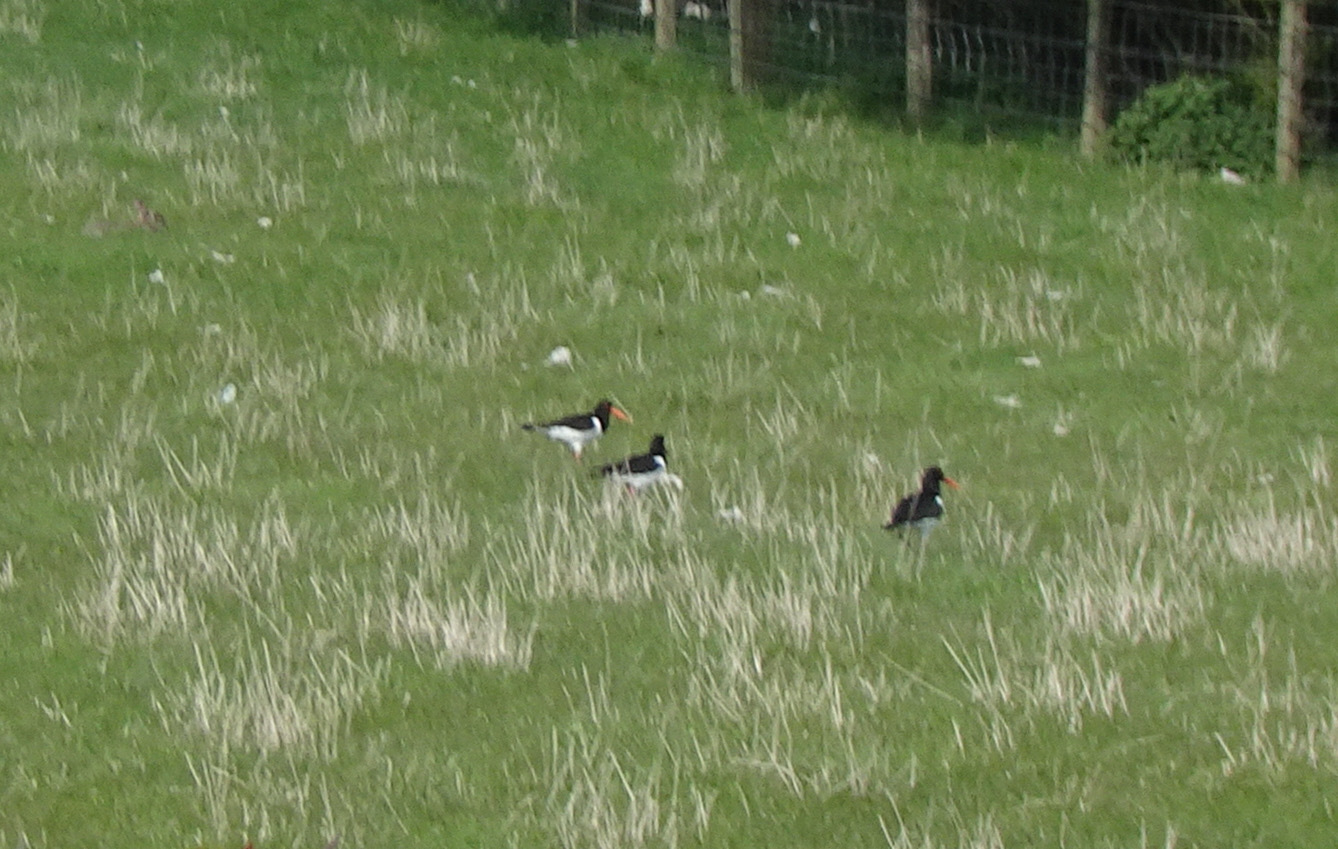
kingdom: Animalia
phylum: Chordata
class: Aves
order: Charadriiformes
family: Haematopodidae
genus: Haematopus
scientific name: Haematopus ostralegus
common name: Eurasian oystercatcher
